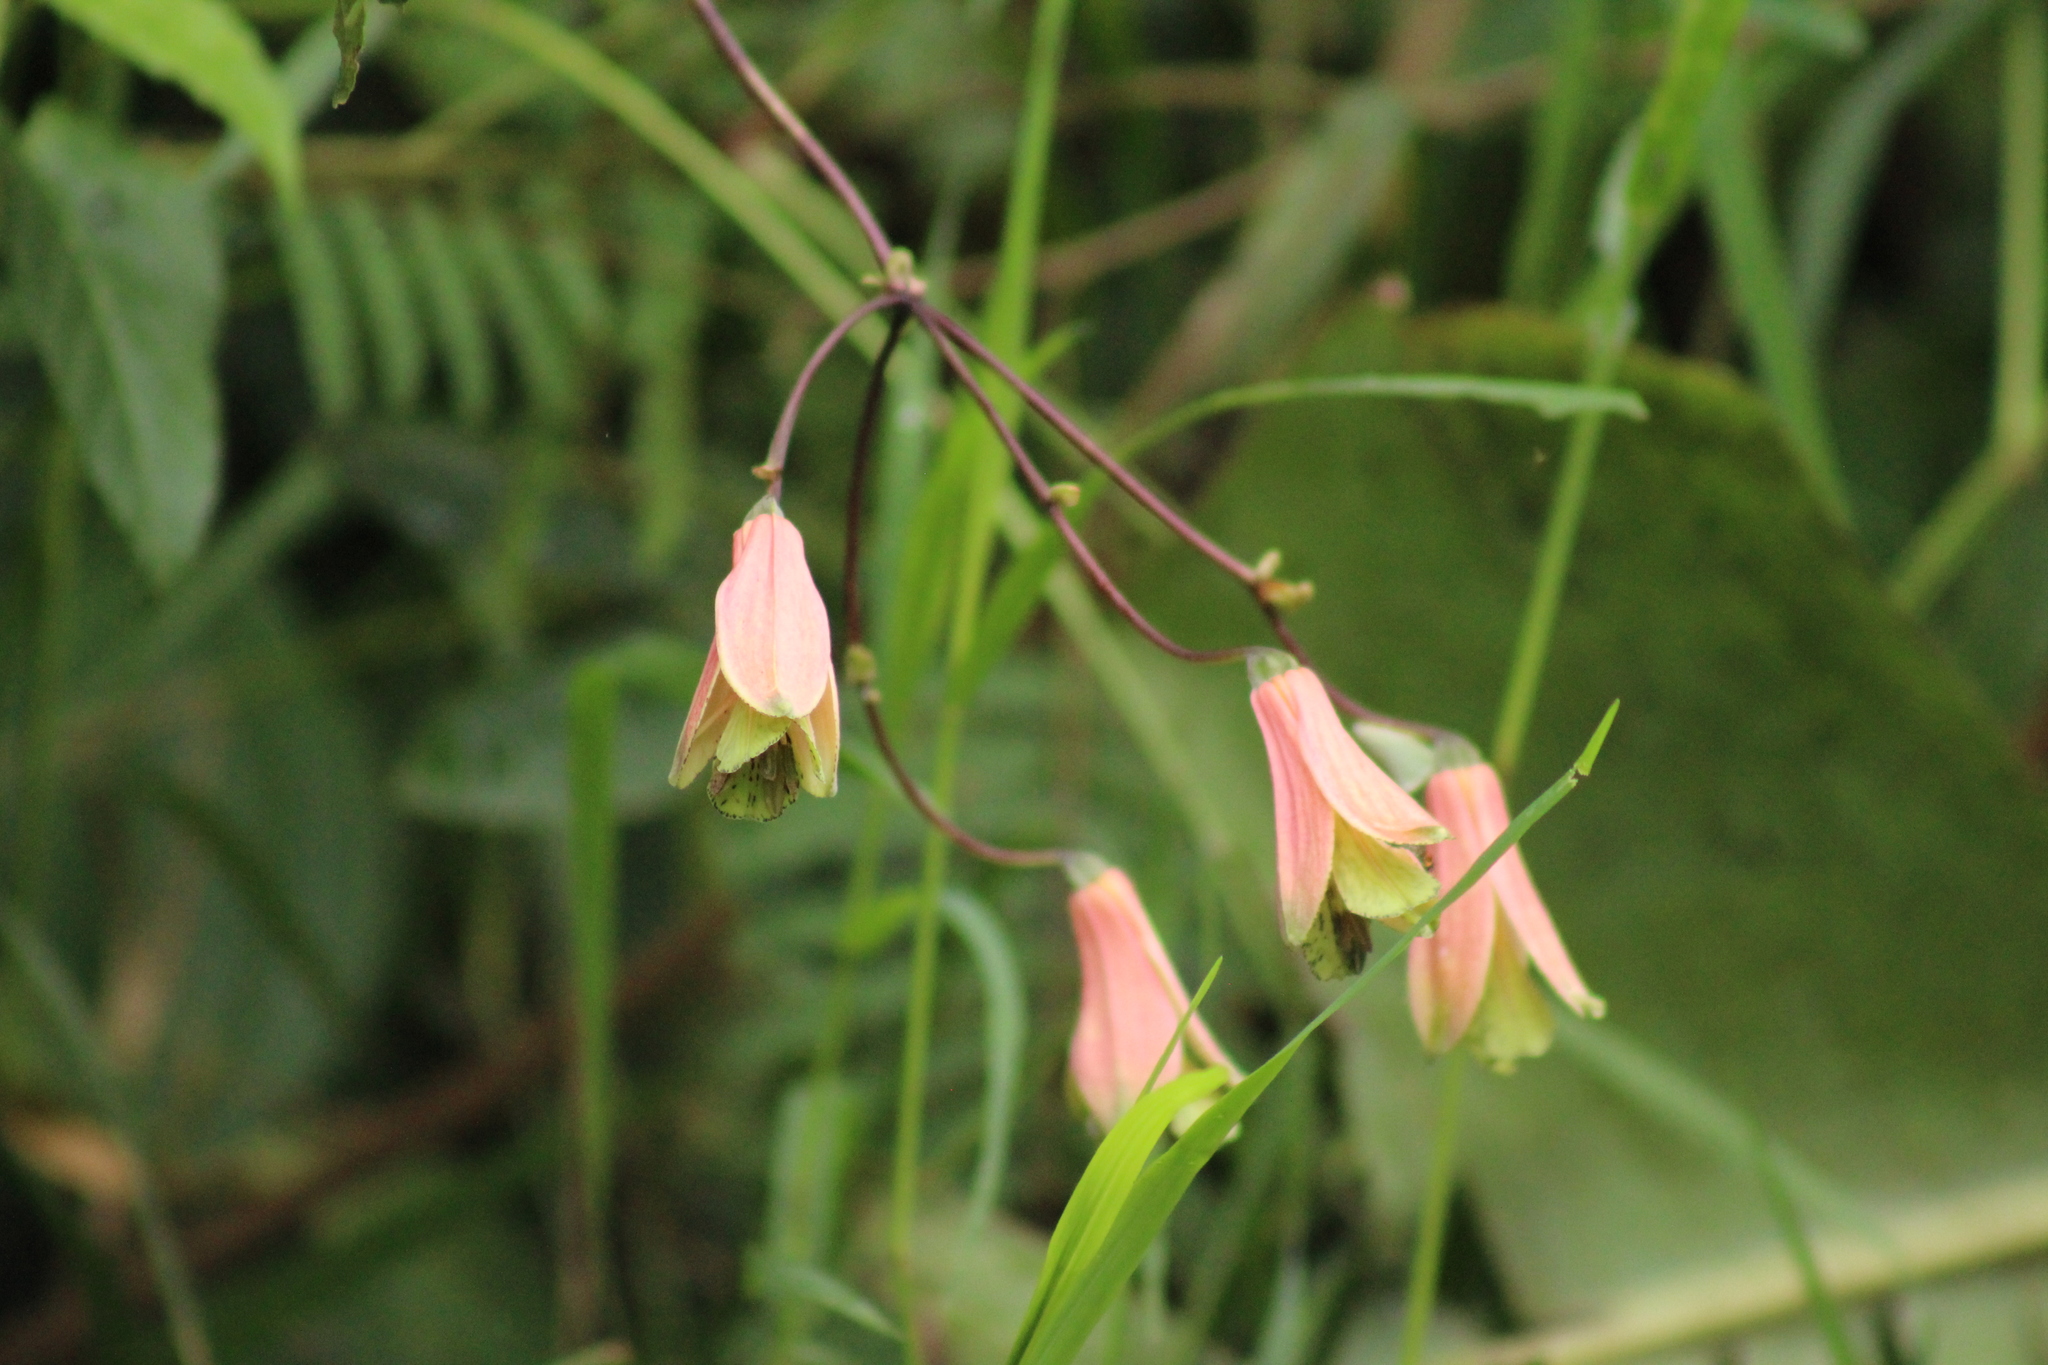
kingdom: Plantae
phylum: Tracheophyta
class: Liliopsida
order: Liliales
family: Alstroemeriaceae
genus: Bomarea
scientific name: Bomarea edulis
